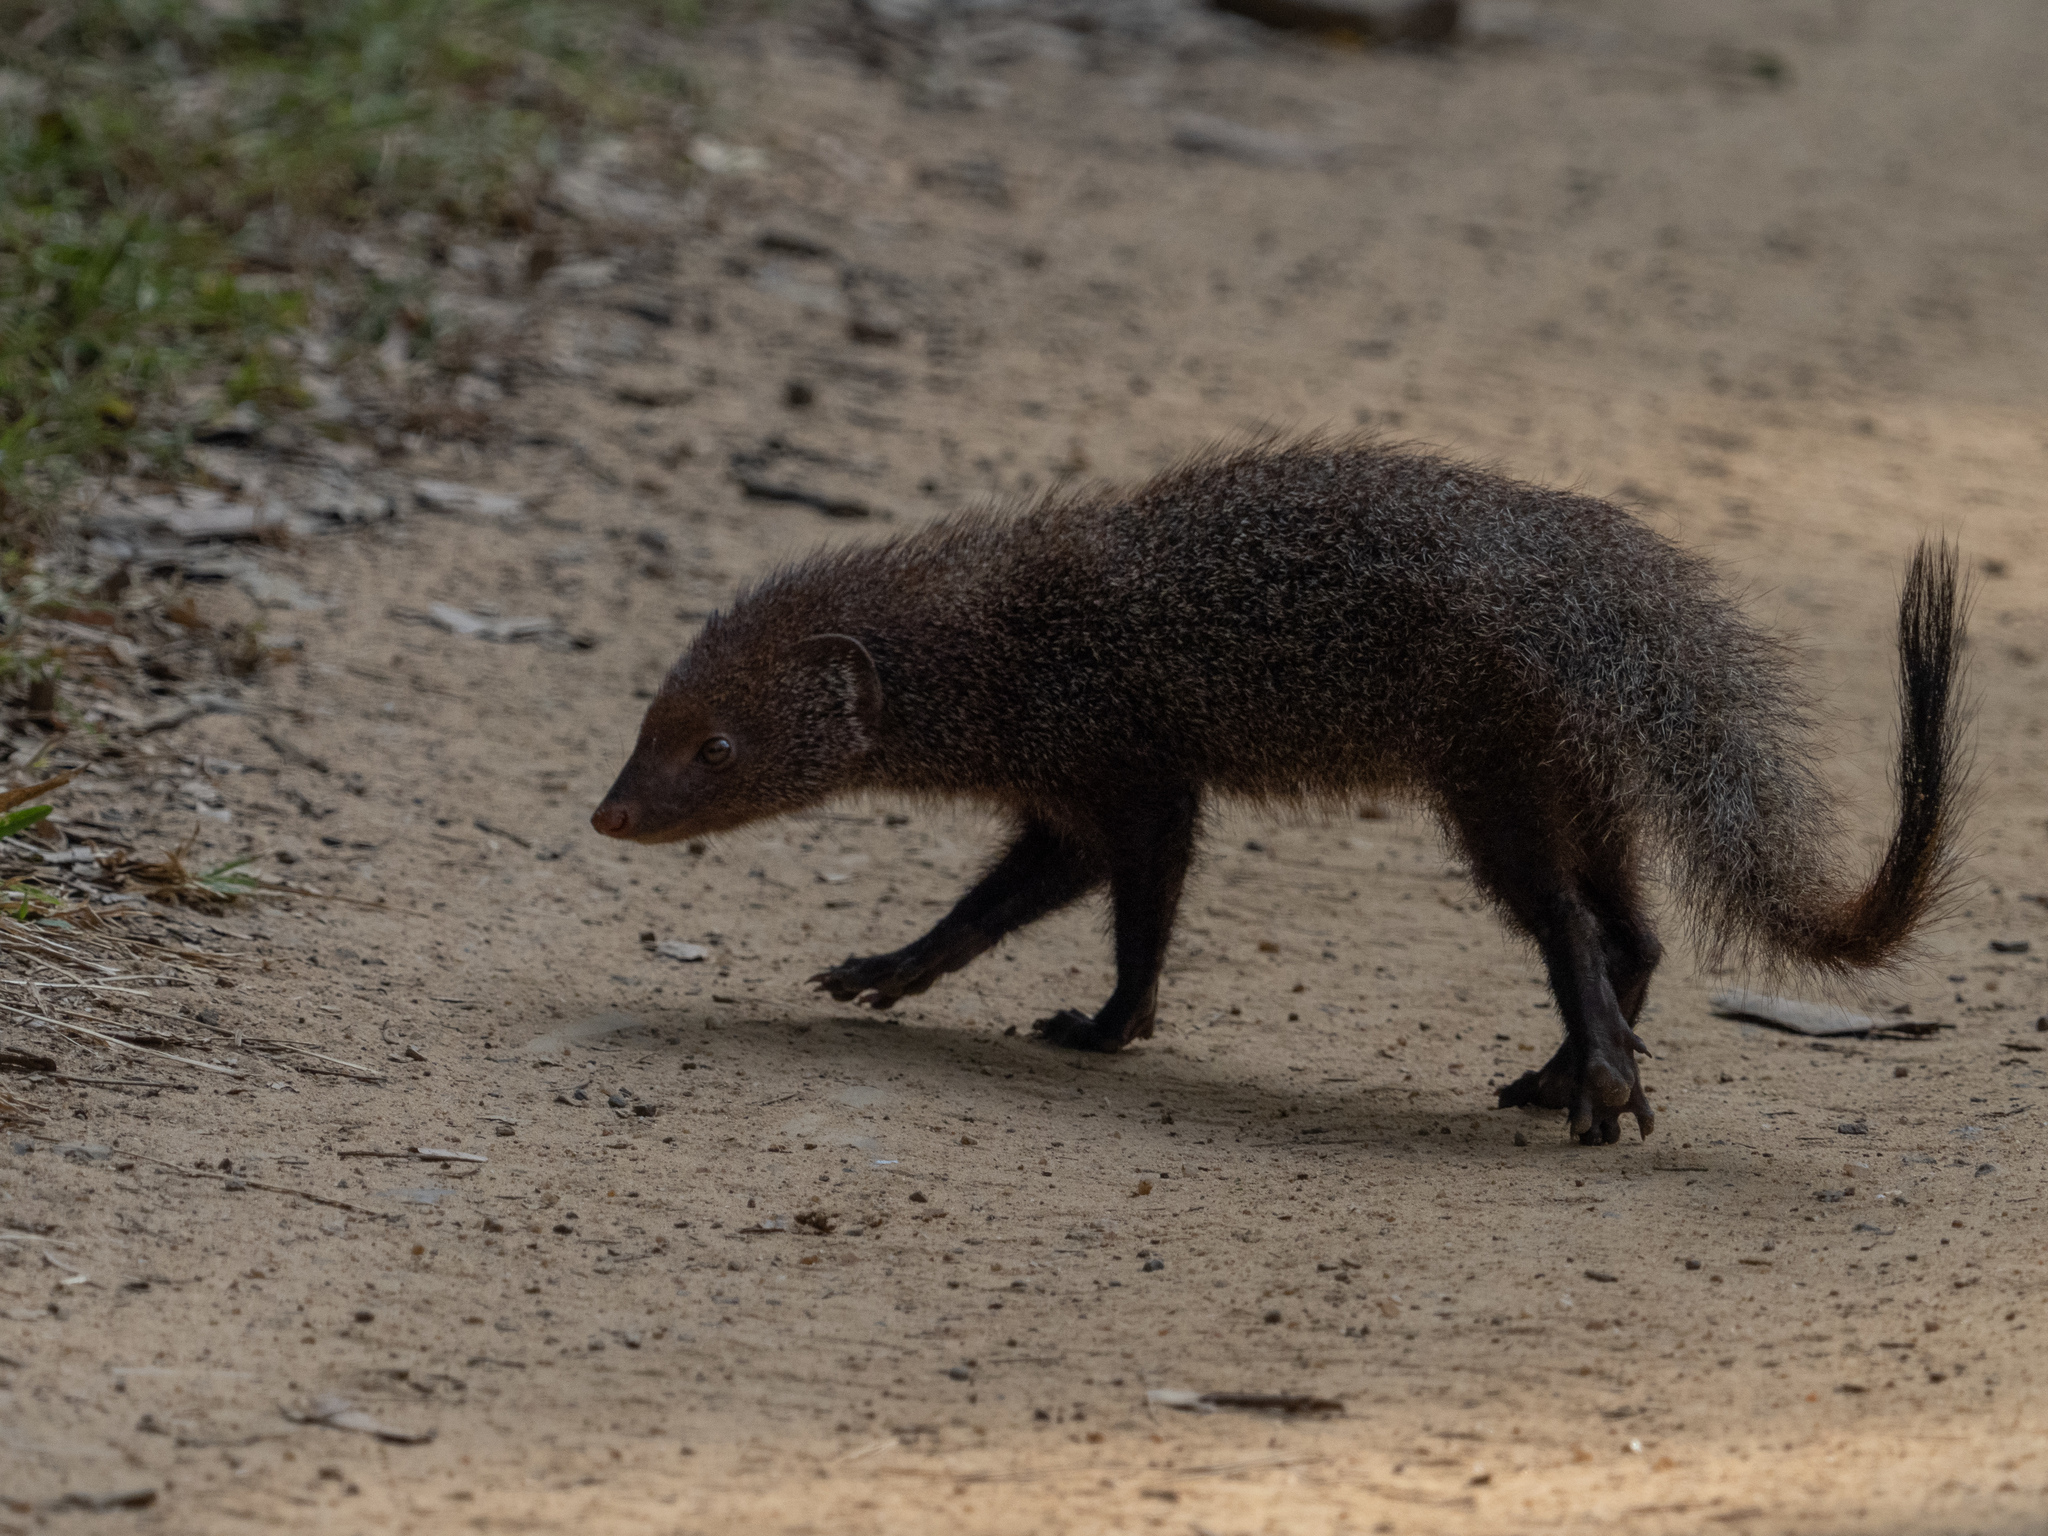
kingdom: Animalia
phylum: Chordata
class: Mammalia
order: Carnivora
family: Herpestidae
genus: Herpestes
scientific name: Herpestes smithii
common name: Ruddy mongoose
